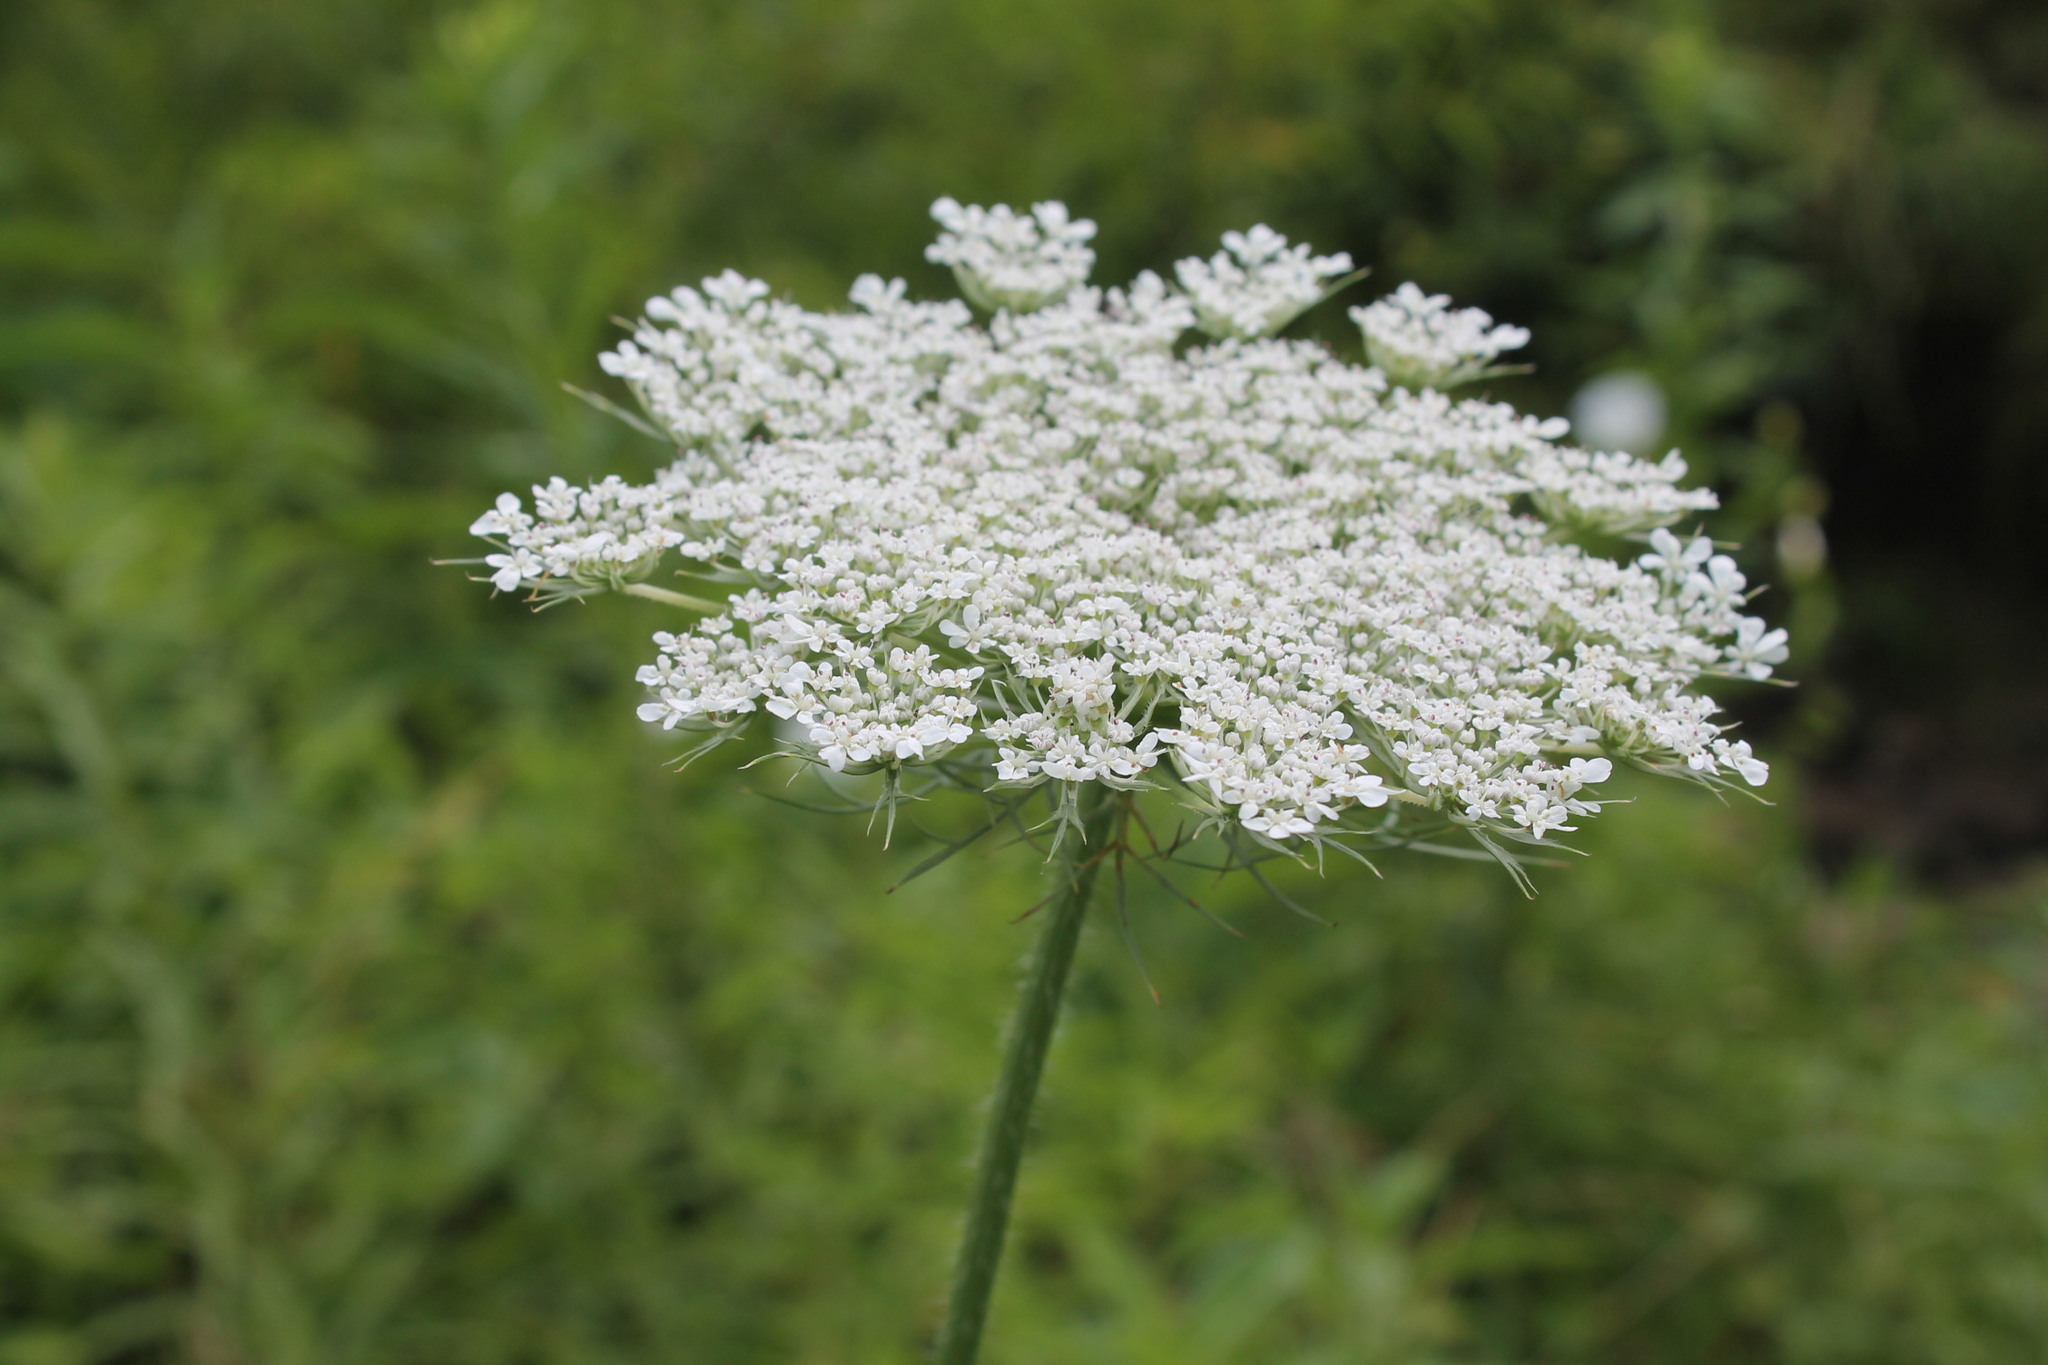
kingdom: Plantae
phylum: Tracheophyta
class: Magnoliopsida
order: Apiales
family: Apiaceae
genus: Daucus
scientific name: Daucus carota
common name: Wild carrot
